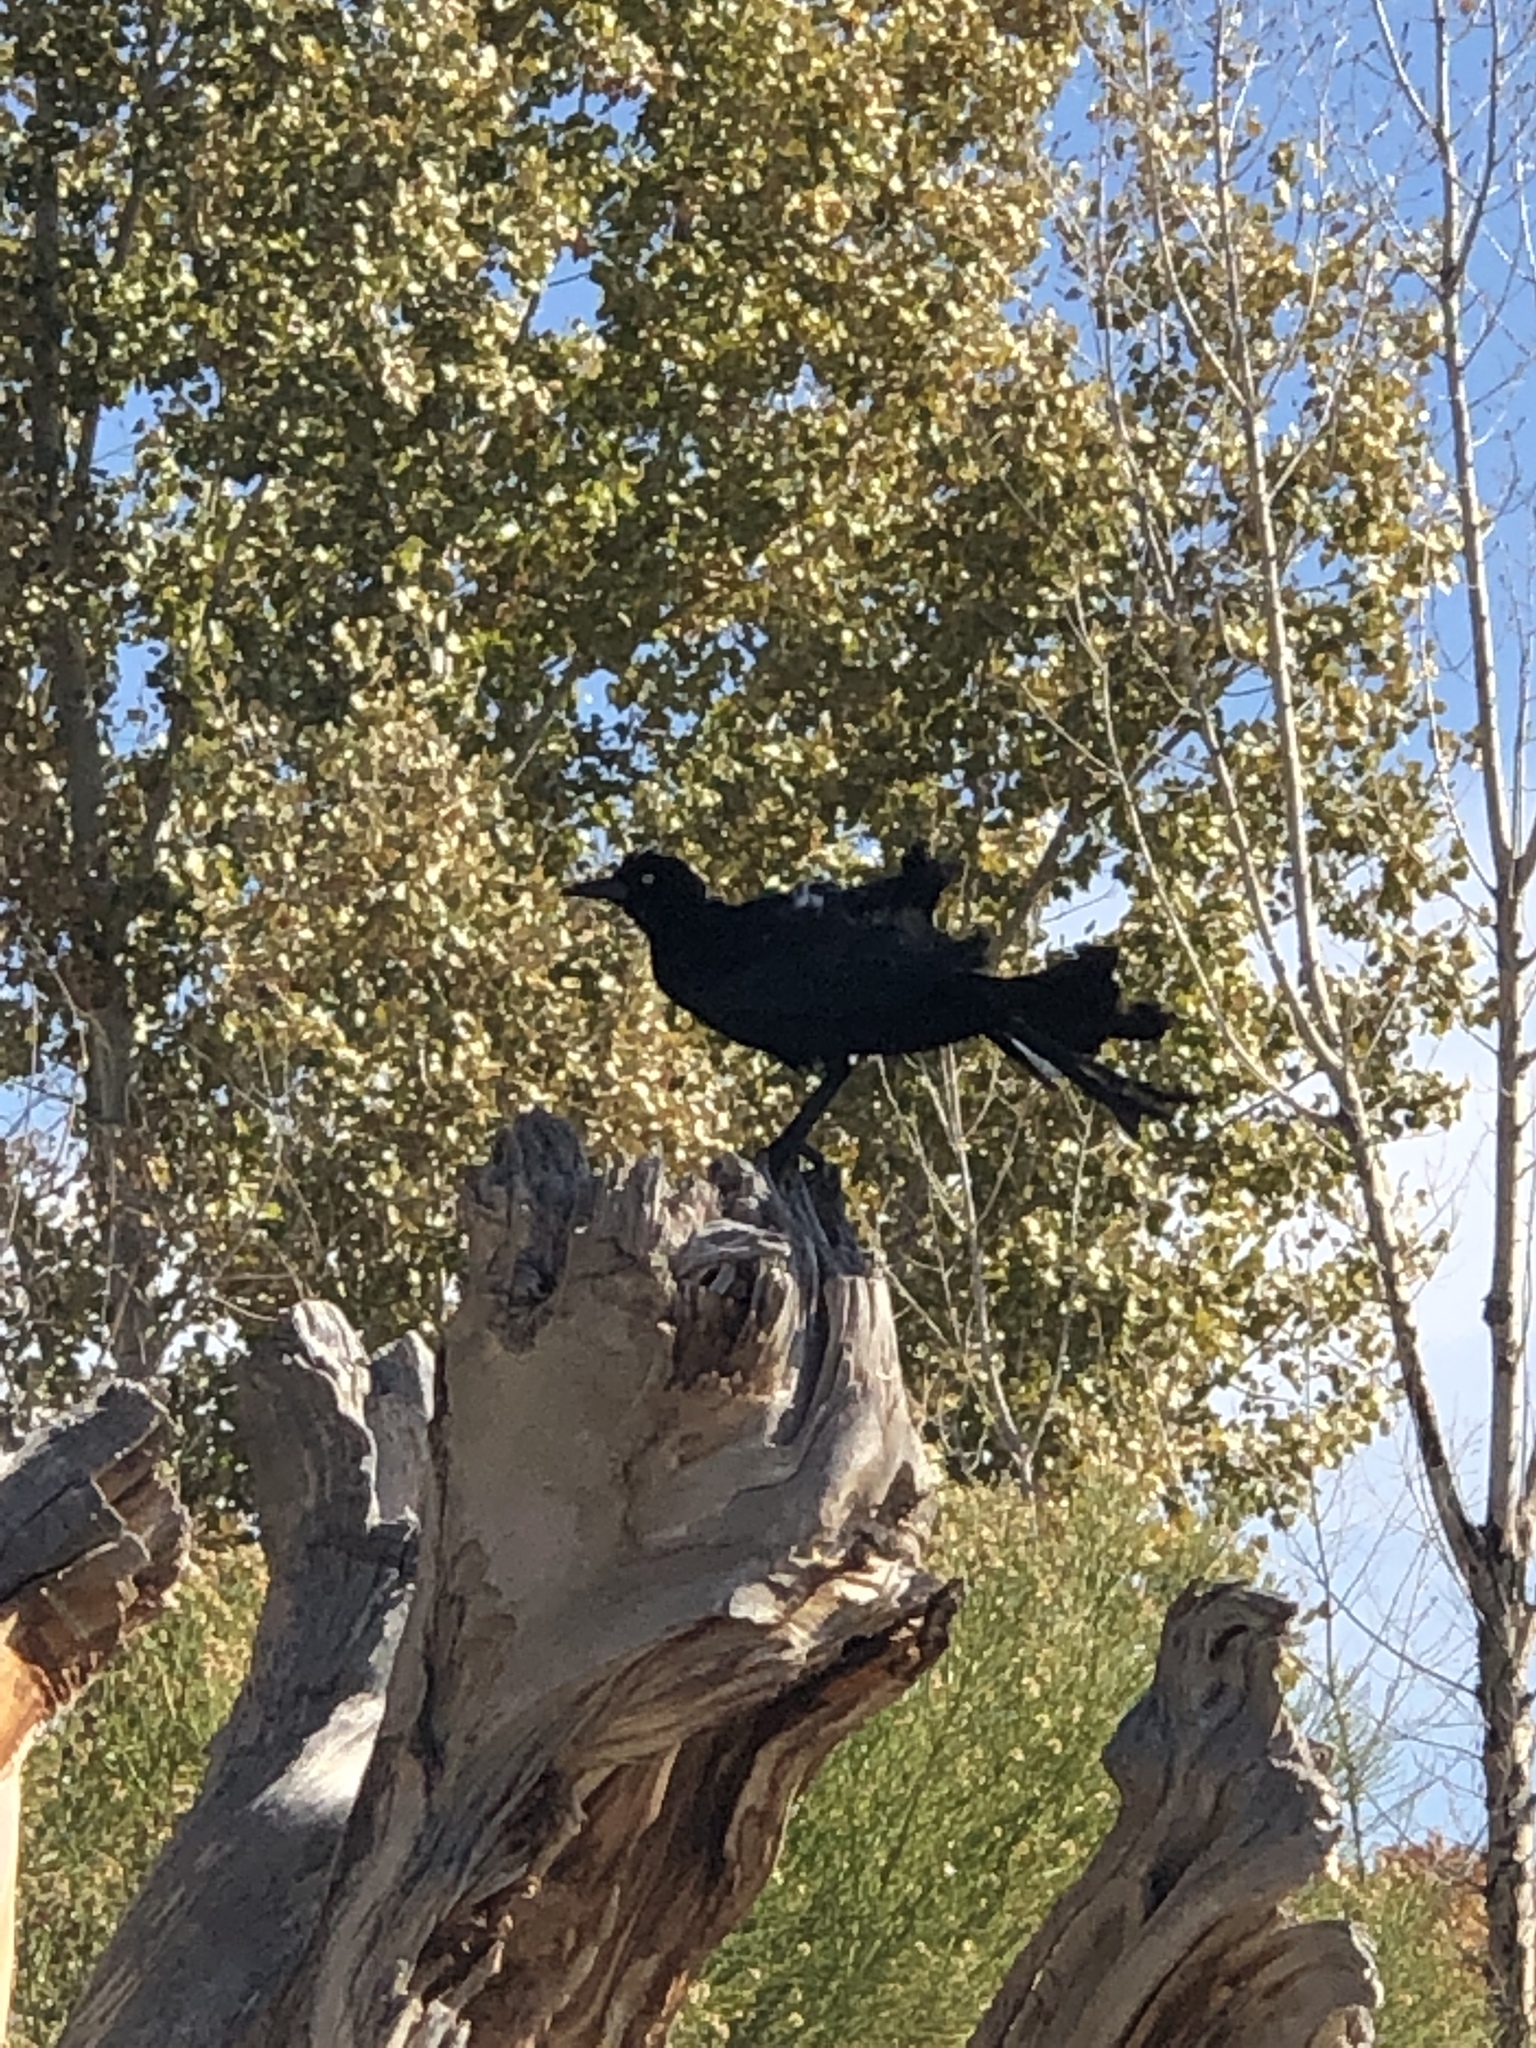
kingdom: Animalia
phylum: Chordata
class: Aves
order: Passeriformes
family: Icteridae
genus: Quiscalus
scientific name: Quiscalus mexicanus
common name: Great-tailed grackle
